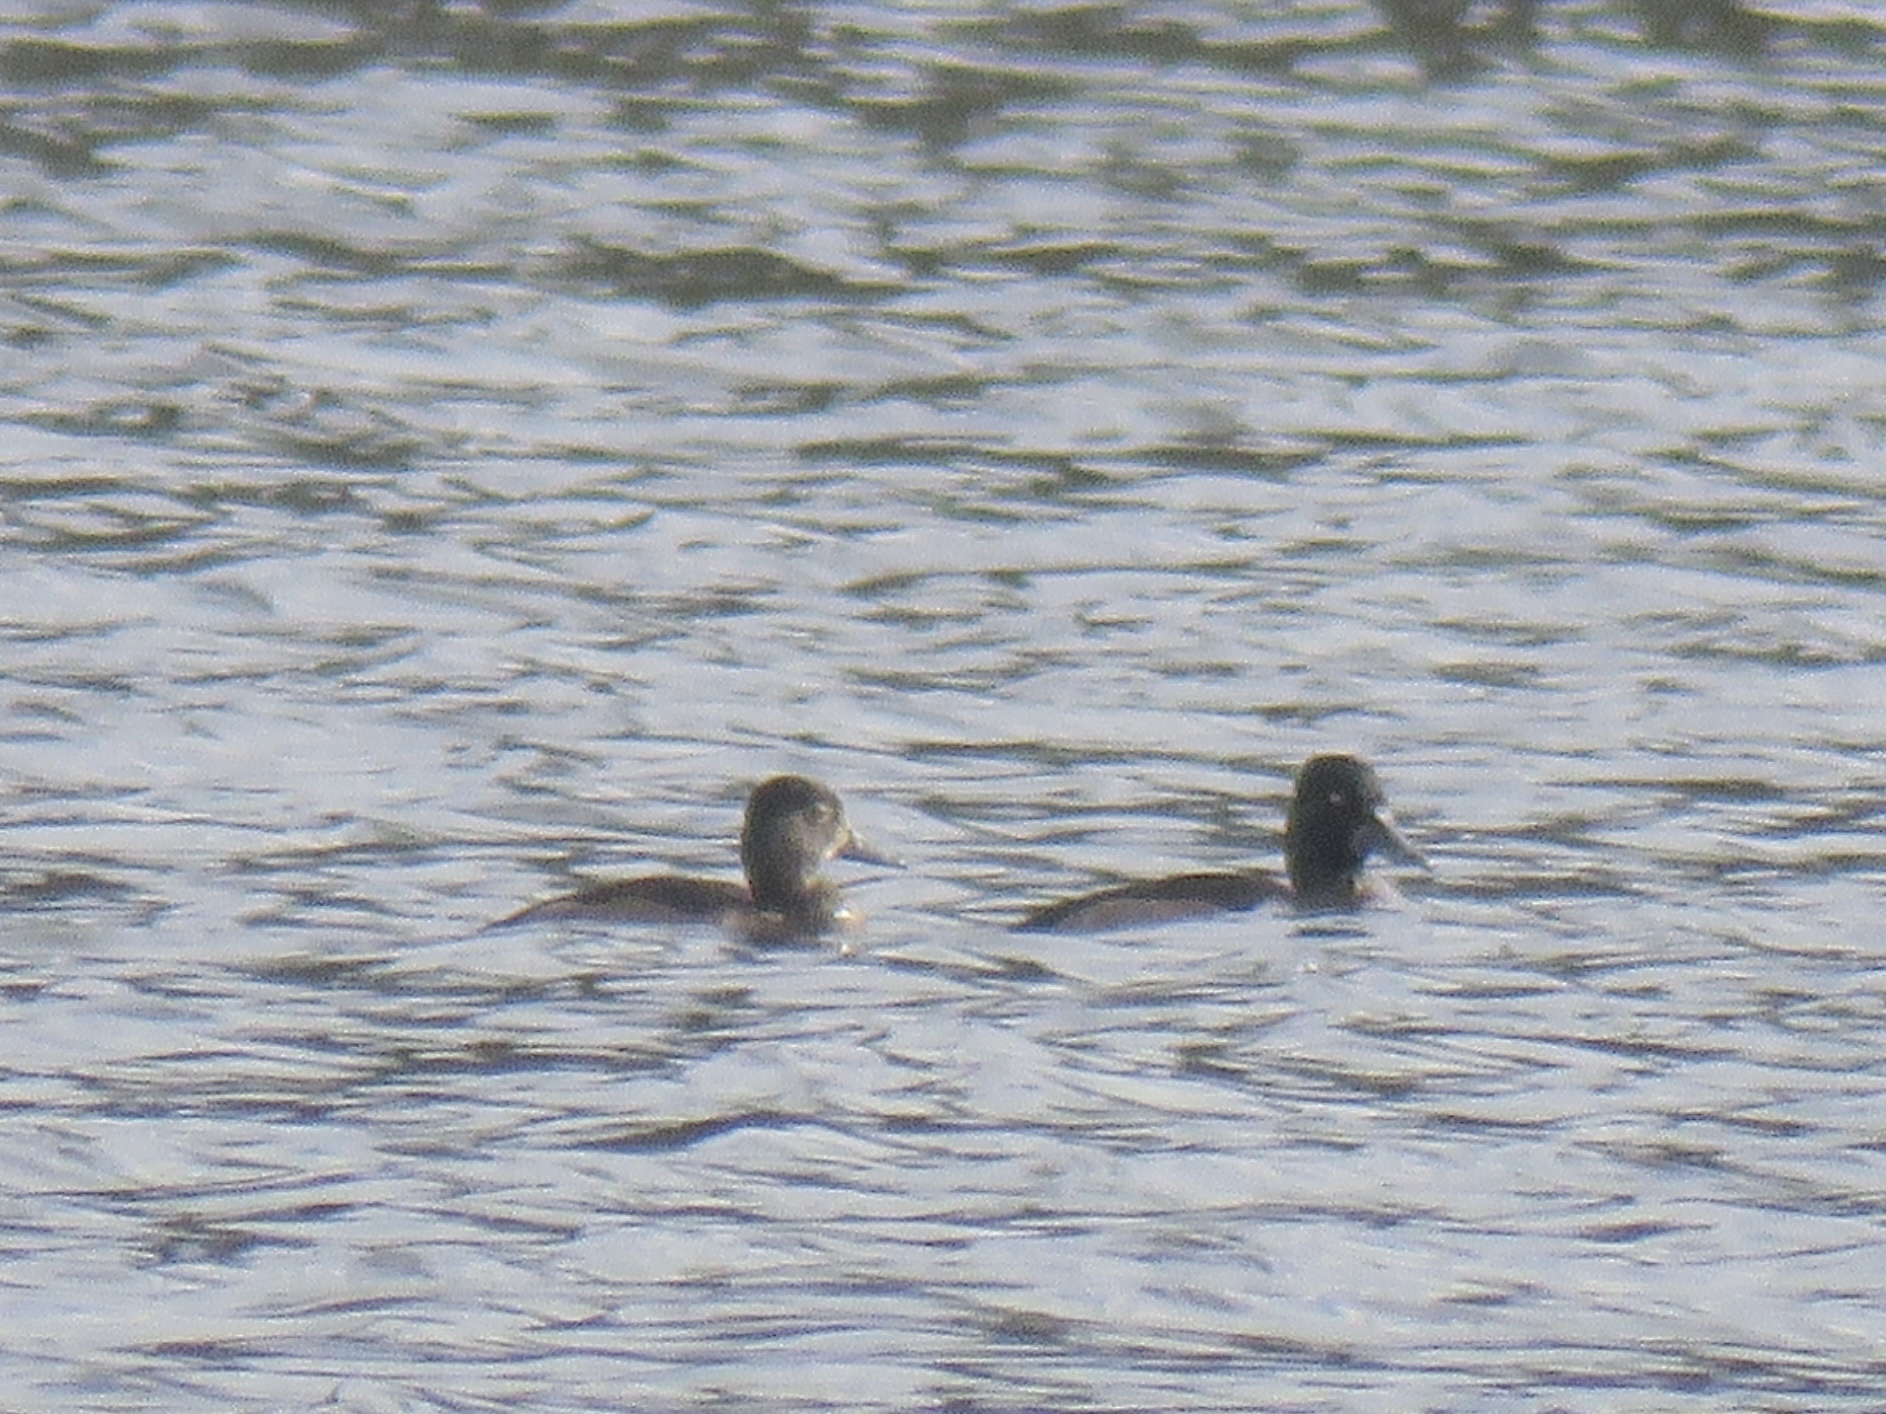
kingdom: Animalia
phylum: Chordata
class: Aves
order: Anseriformes
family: Anatidae
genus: Aythya
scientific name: Aythya collaris
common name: Ring-necked duck
